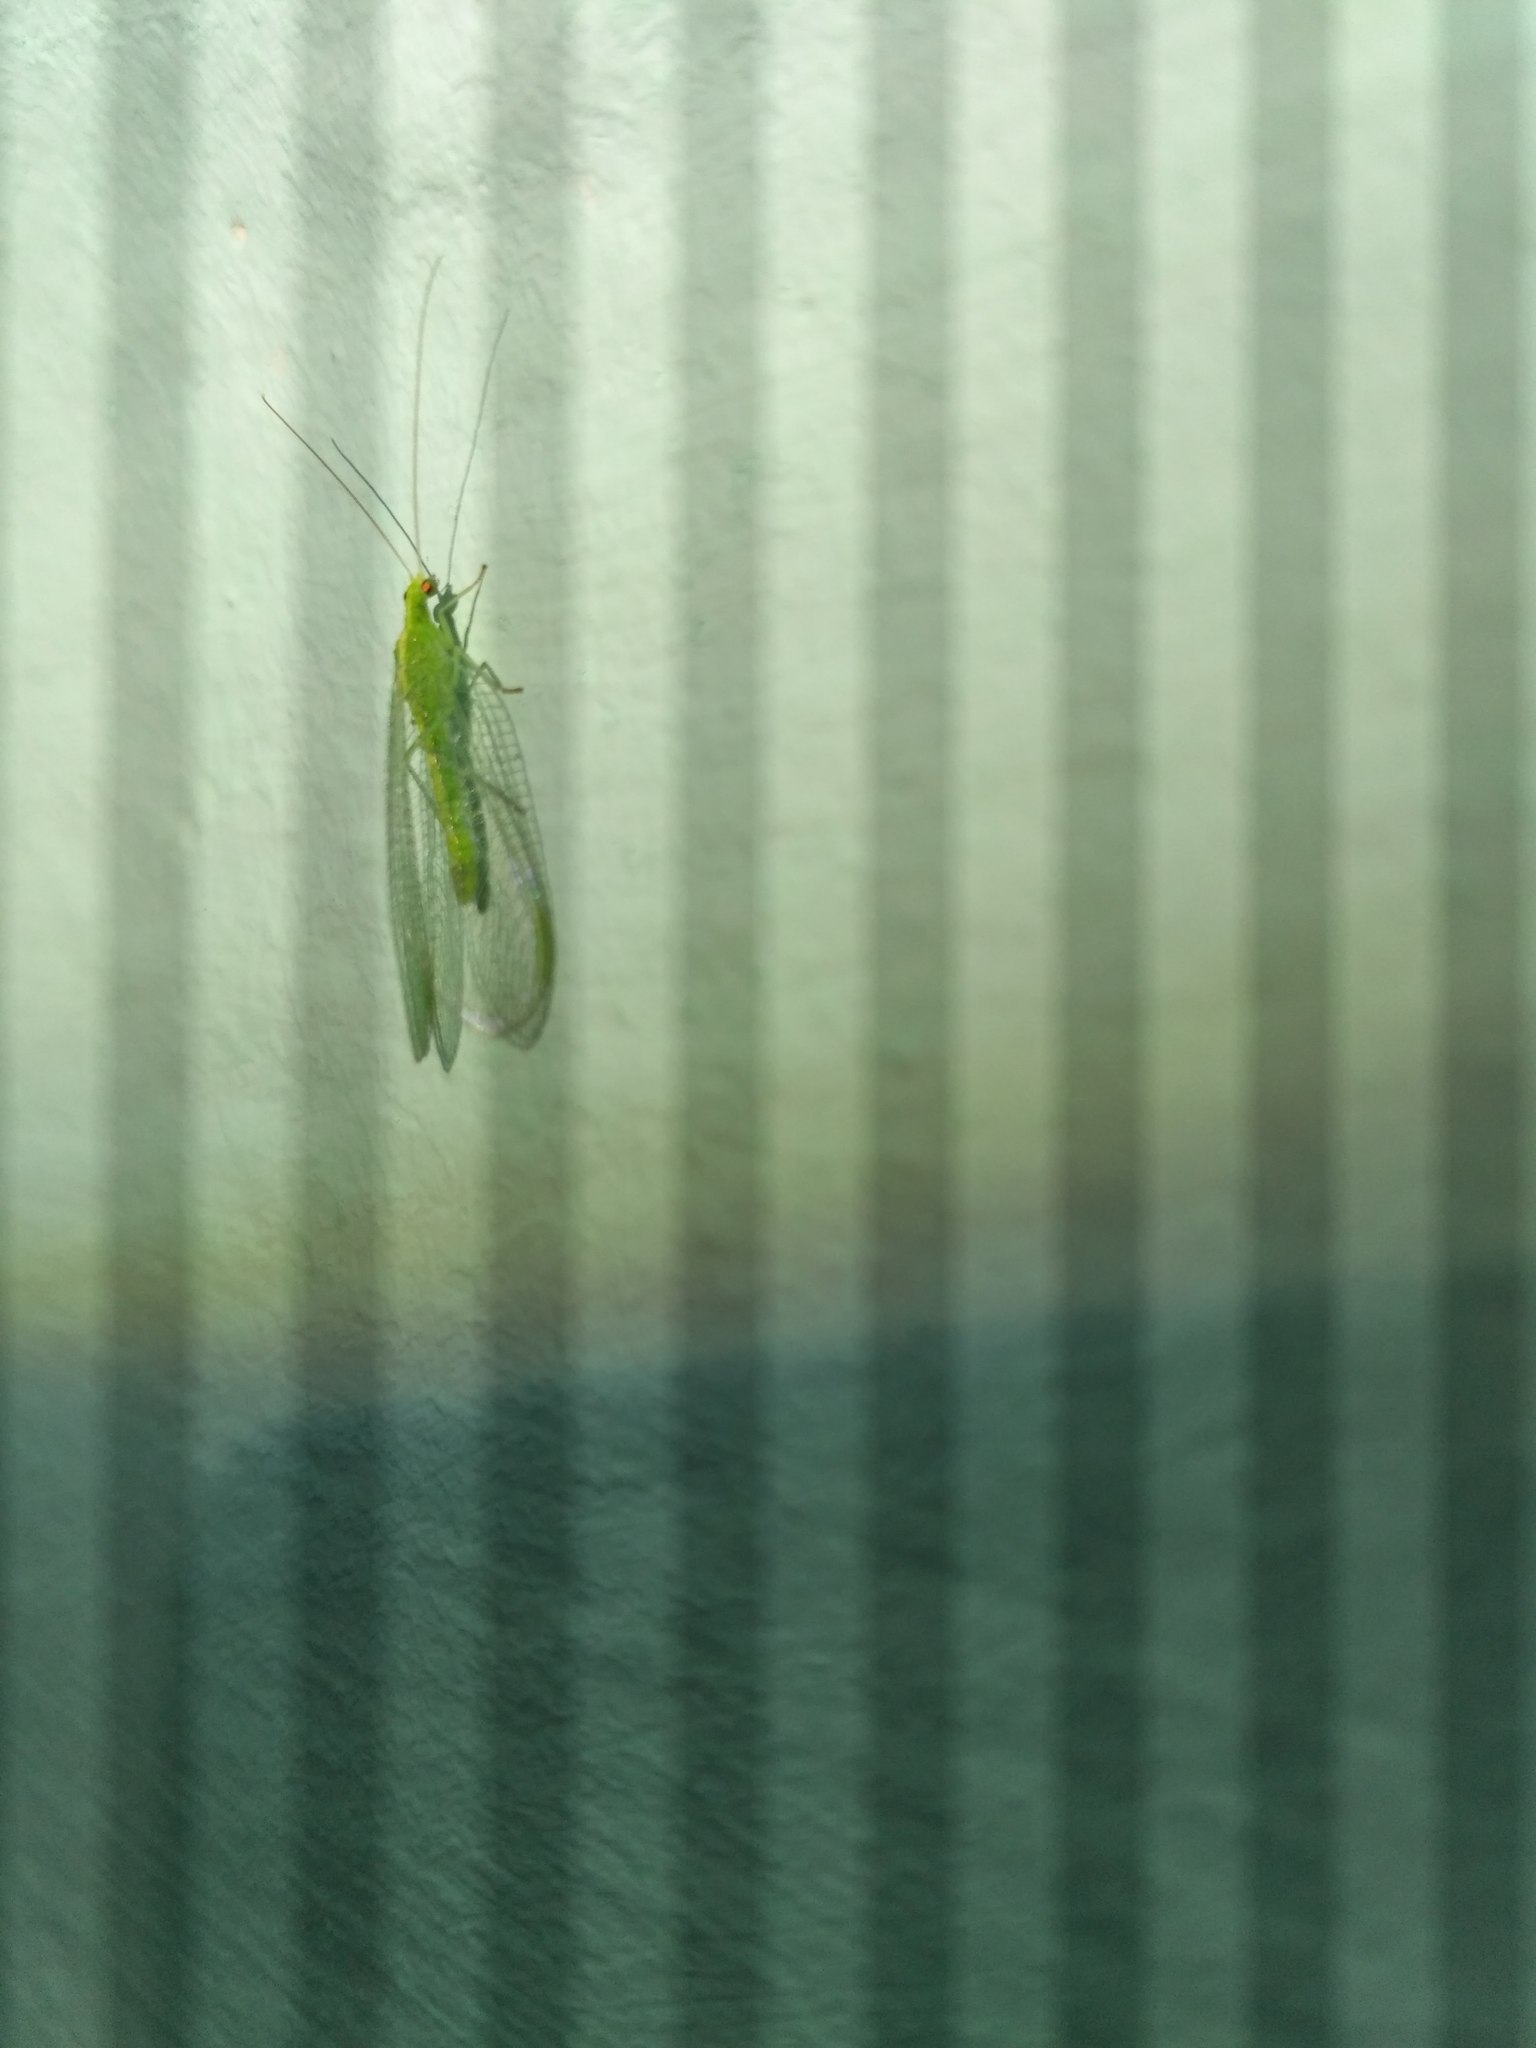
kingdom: Animalia
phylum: Arthropoda
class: Insecta
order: Neuroptera
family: Chrysopidae
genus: Chrysoperla
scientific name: Chrysoperla
